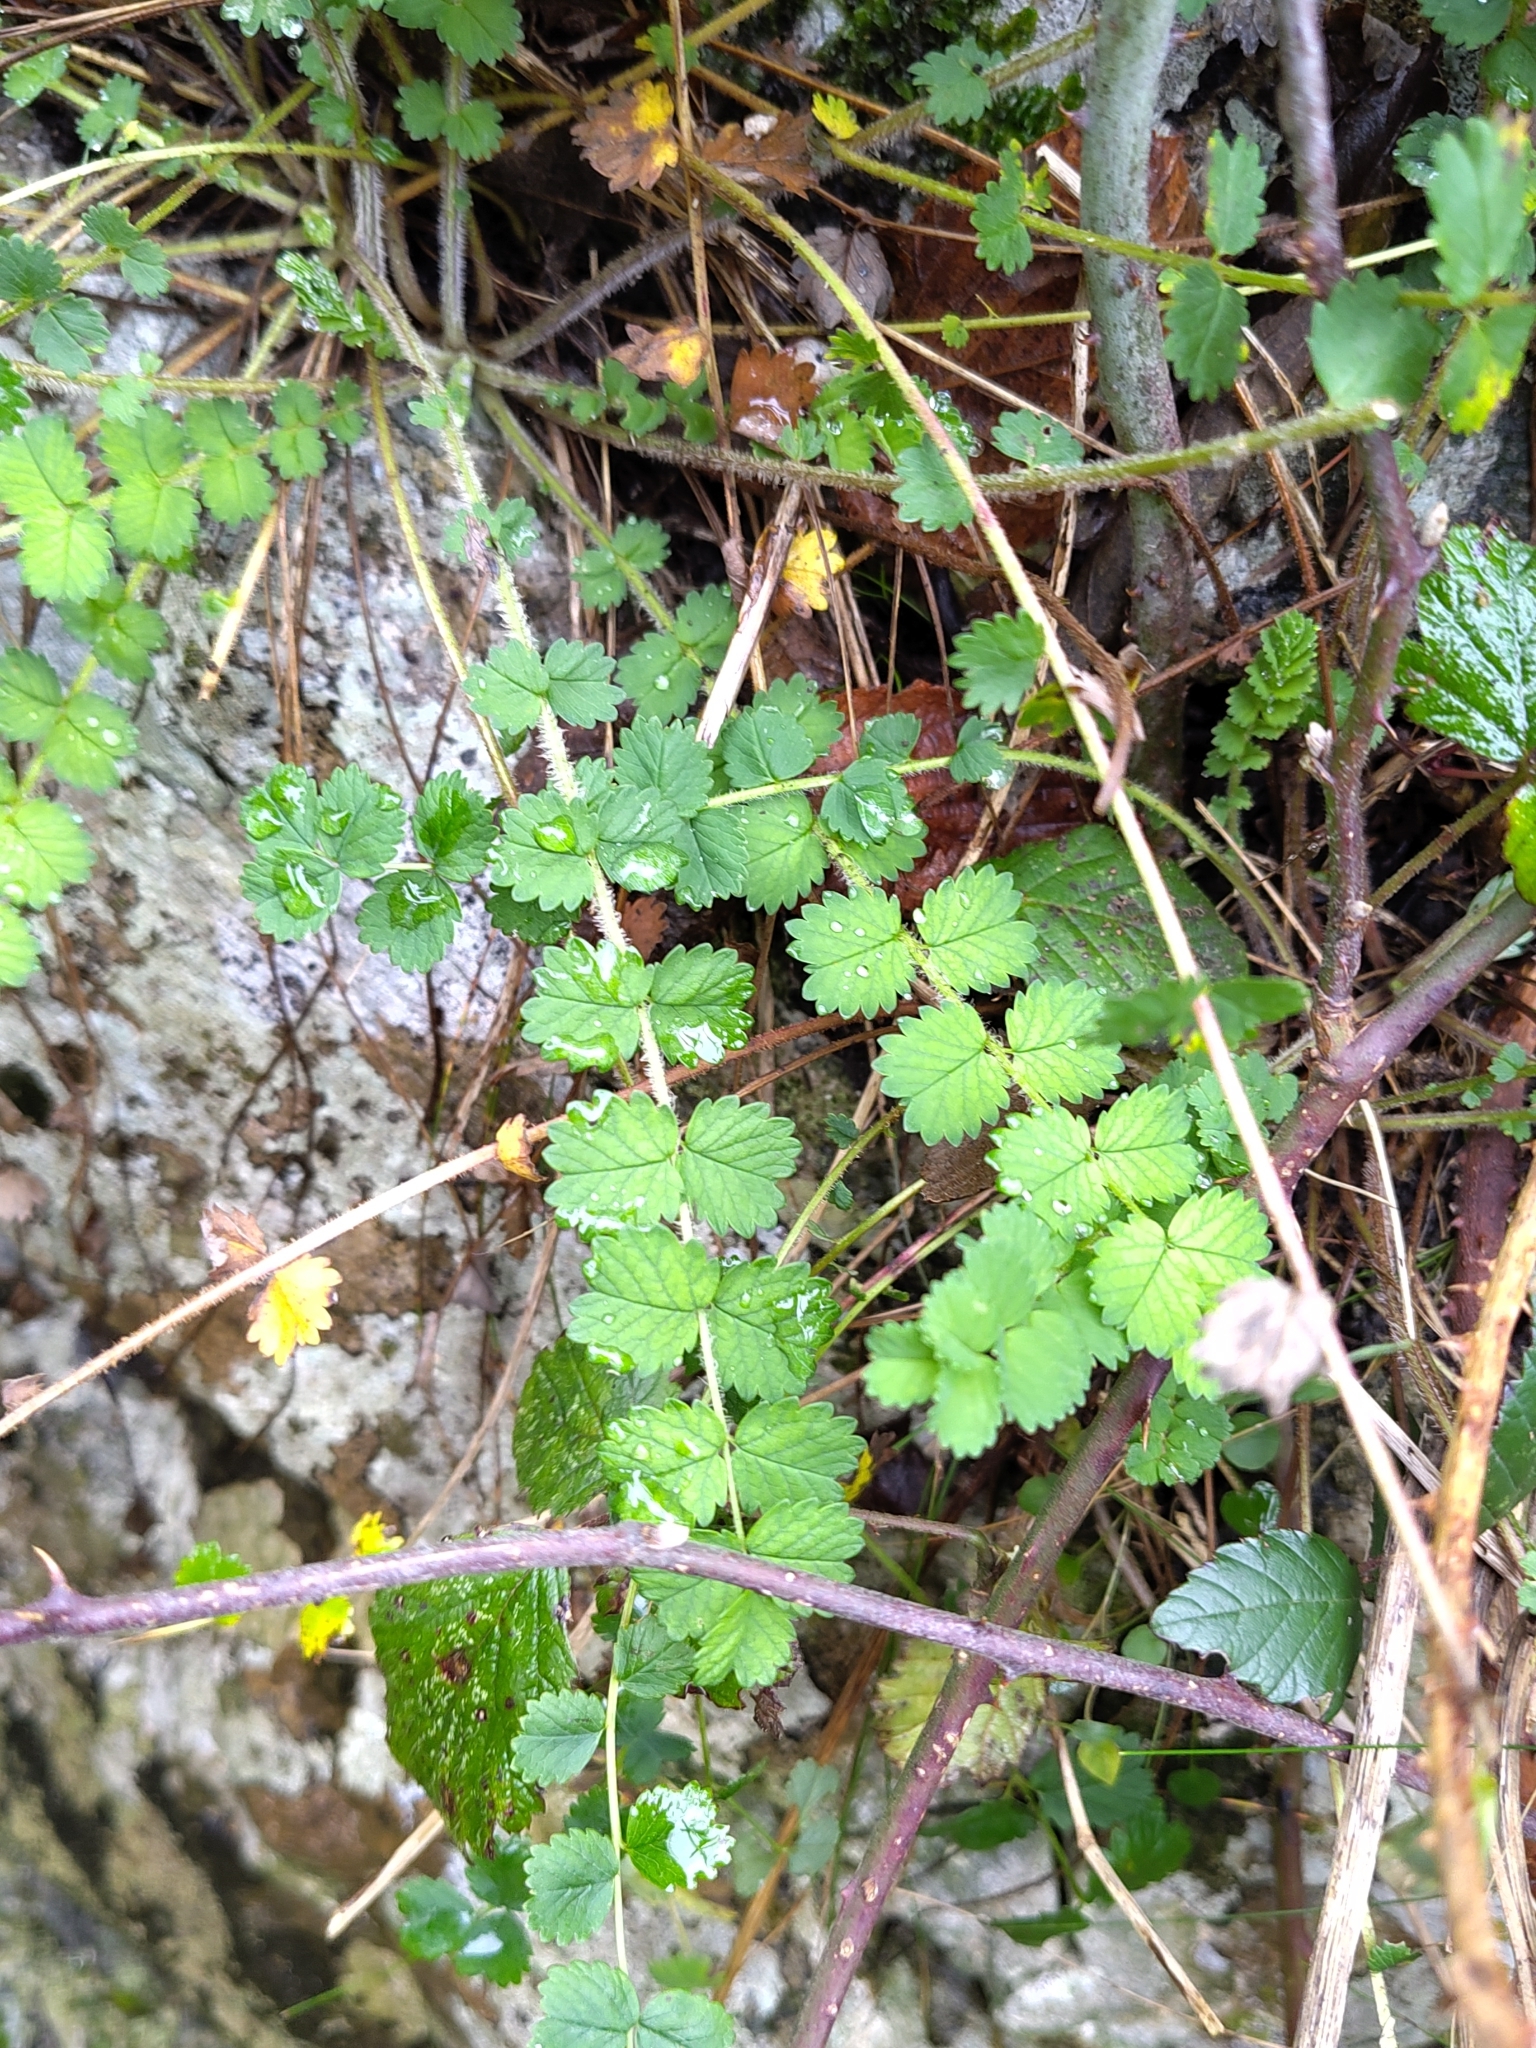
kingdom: Plantae
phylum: Tracheophyta
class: Magnoliopsida
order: Rosales
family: Rosaceae
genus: Poterium
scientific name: Poterium sanguisorba
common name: Salad burnet
